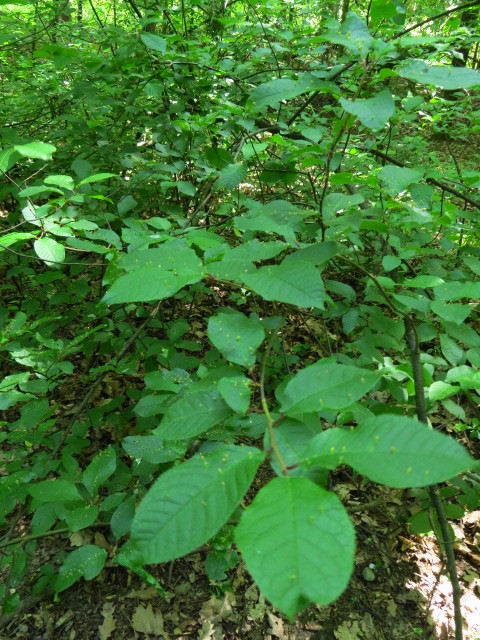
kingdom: Plantae
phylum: Tracheophyta
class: Magnoliopsida
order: Rosales
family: Rosaceae
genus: Prunus
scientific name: Prunus padus
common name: Bird cherry
